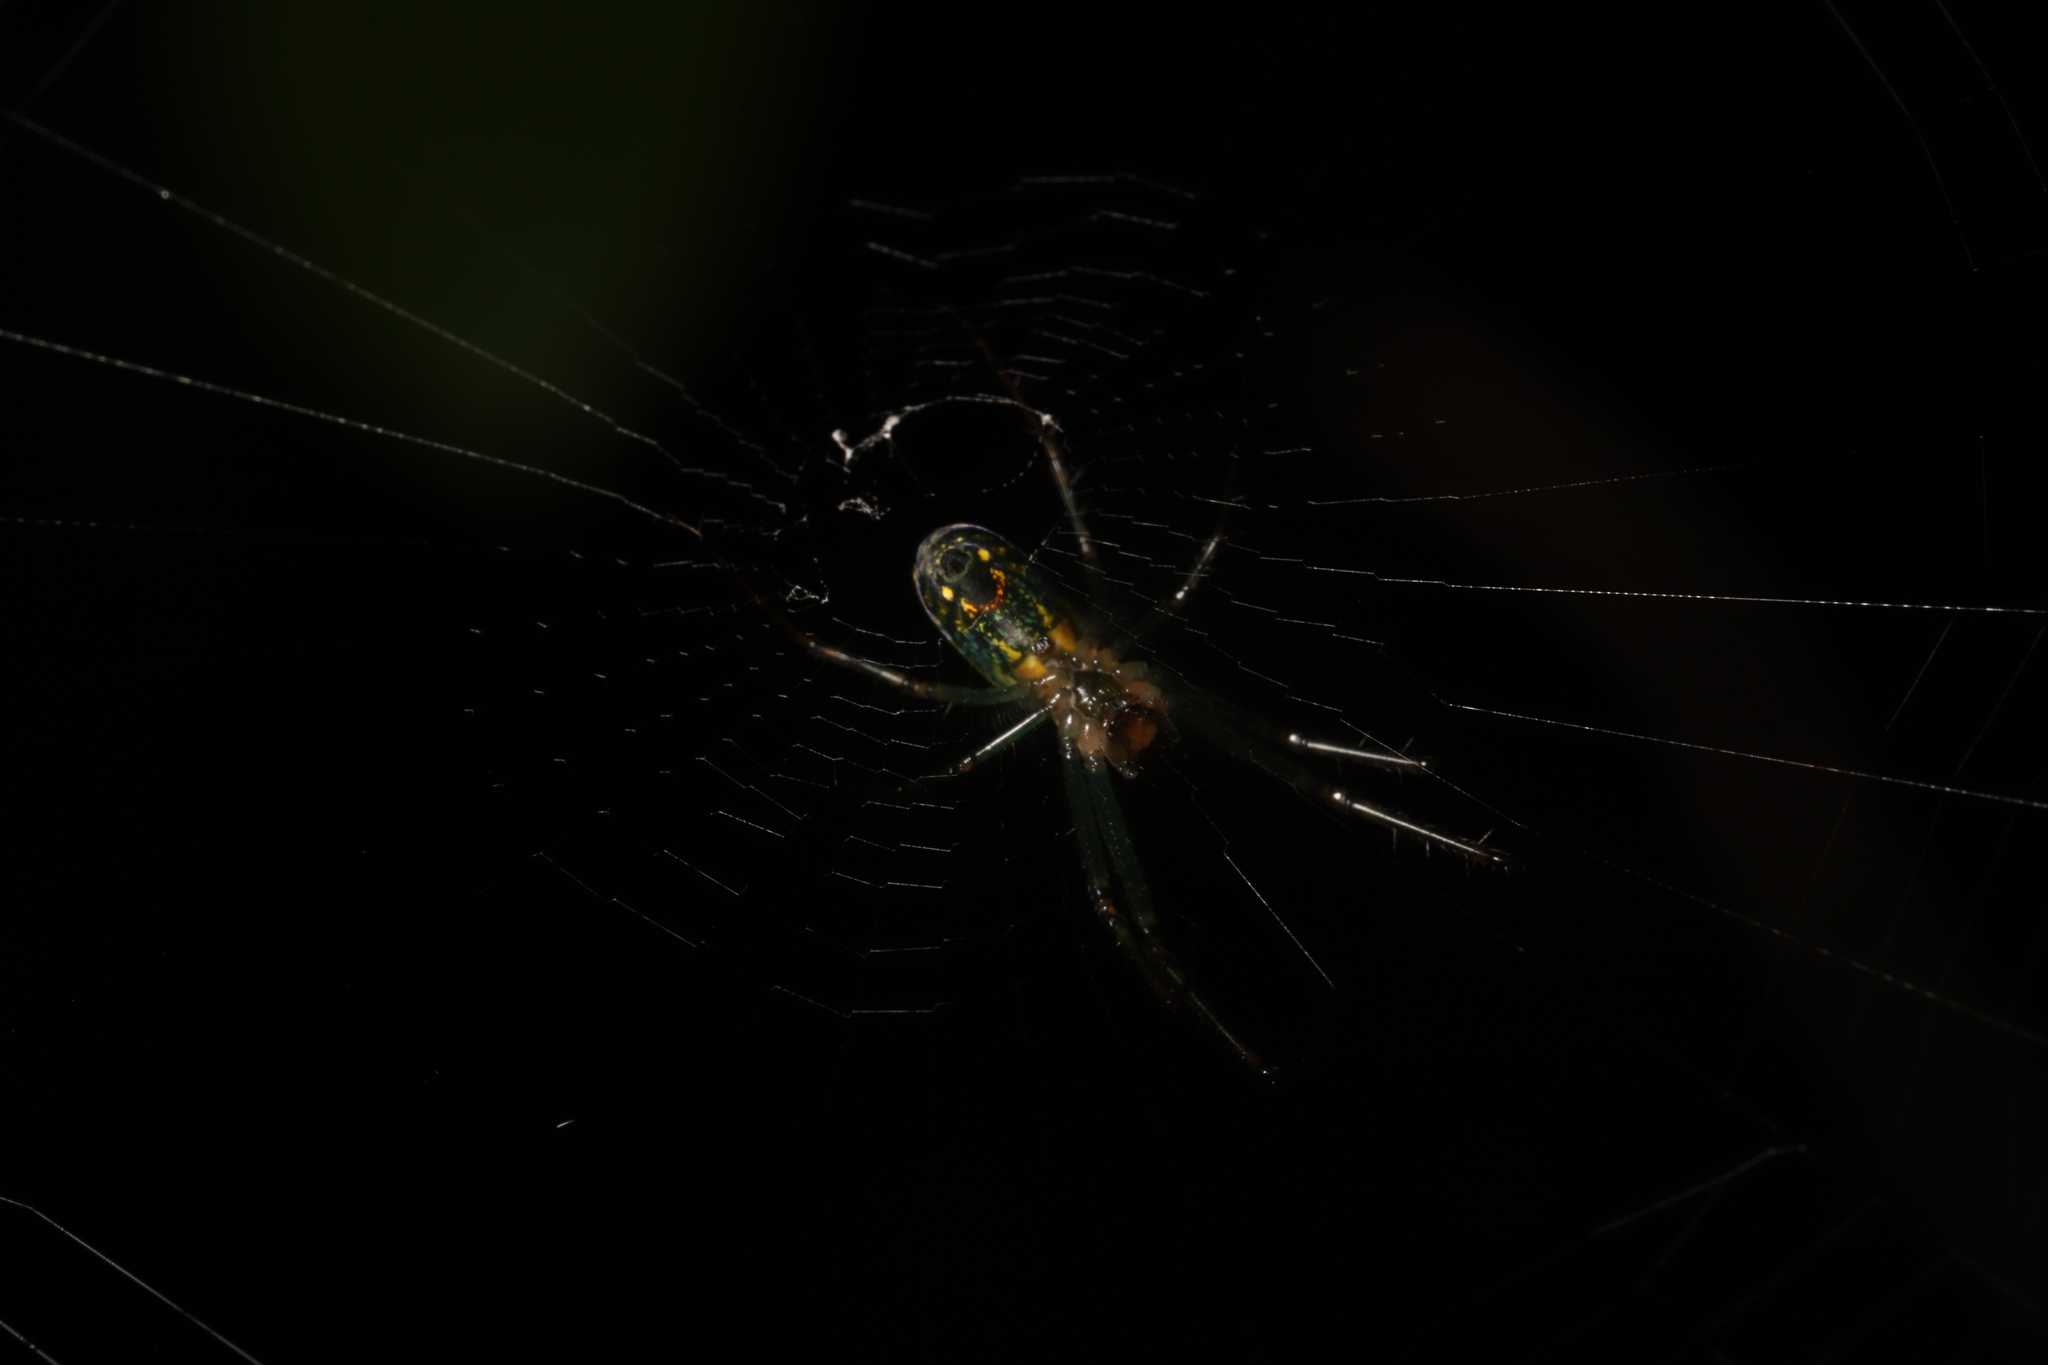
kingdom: Animalia
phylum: Arthropoda
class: Arachnida
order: Araneae
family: Tetragnathidae
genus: Leucauge
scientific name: Leucauge venusta
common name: Longjawed orb weavers
